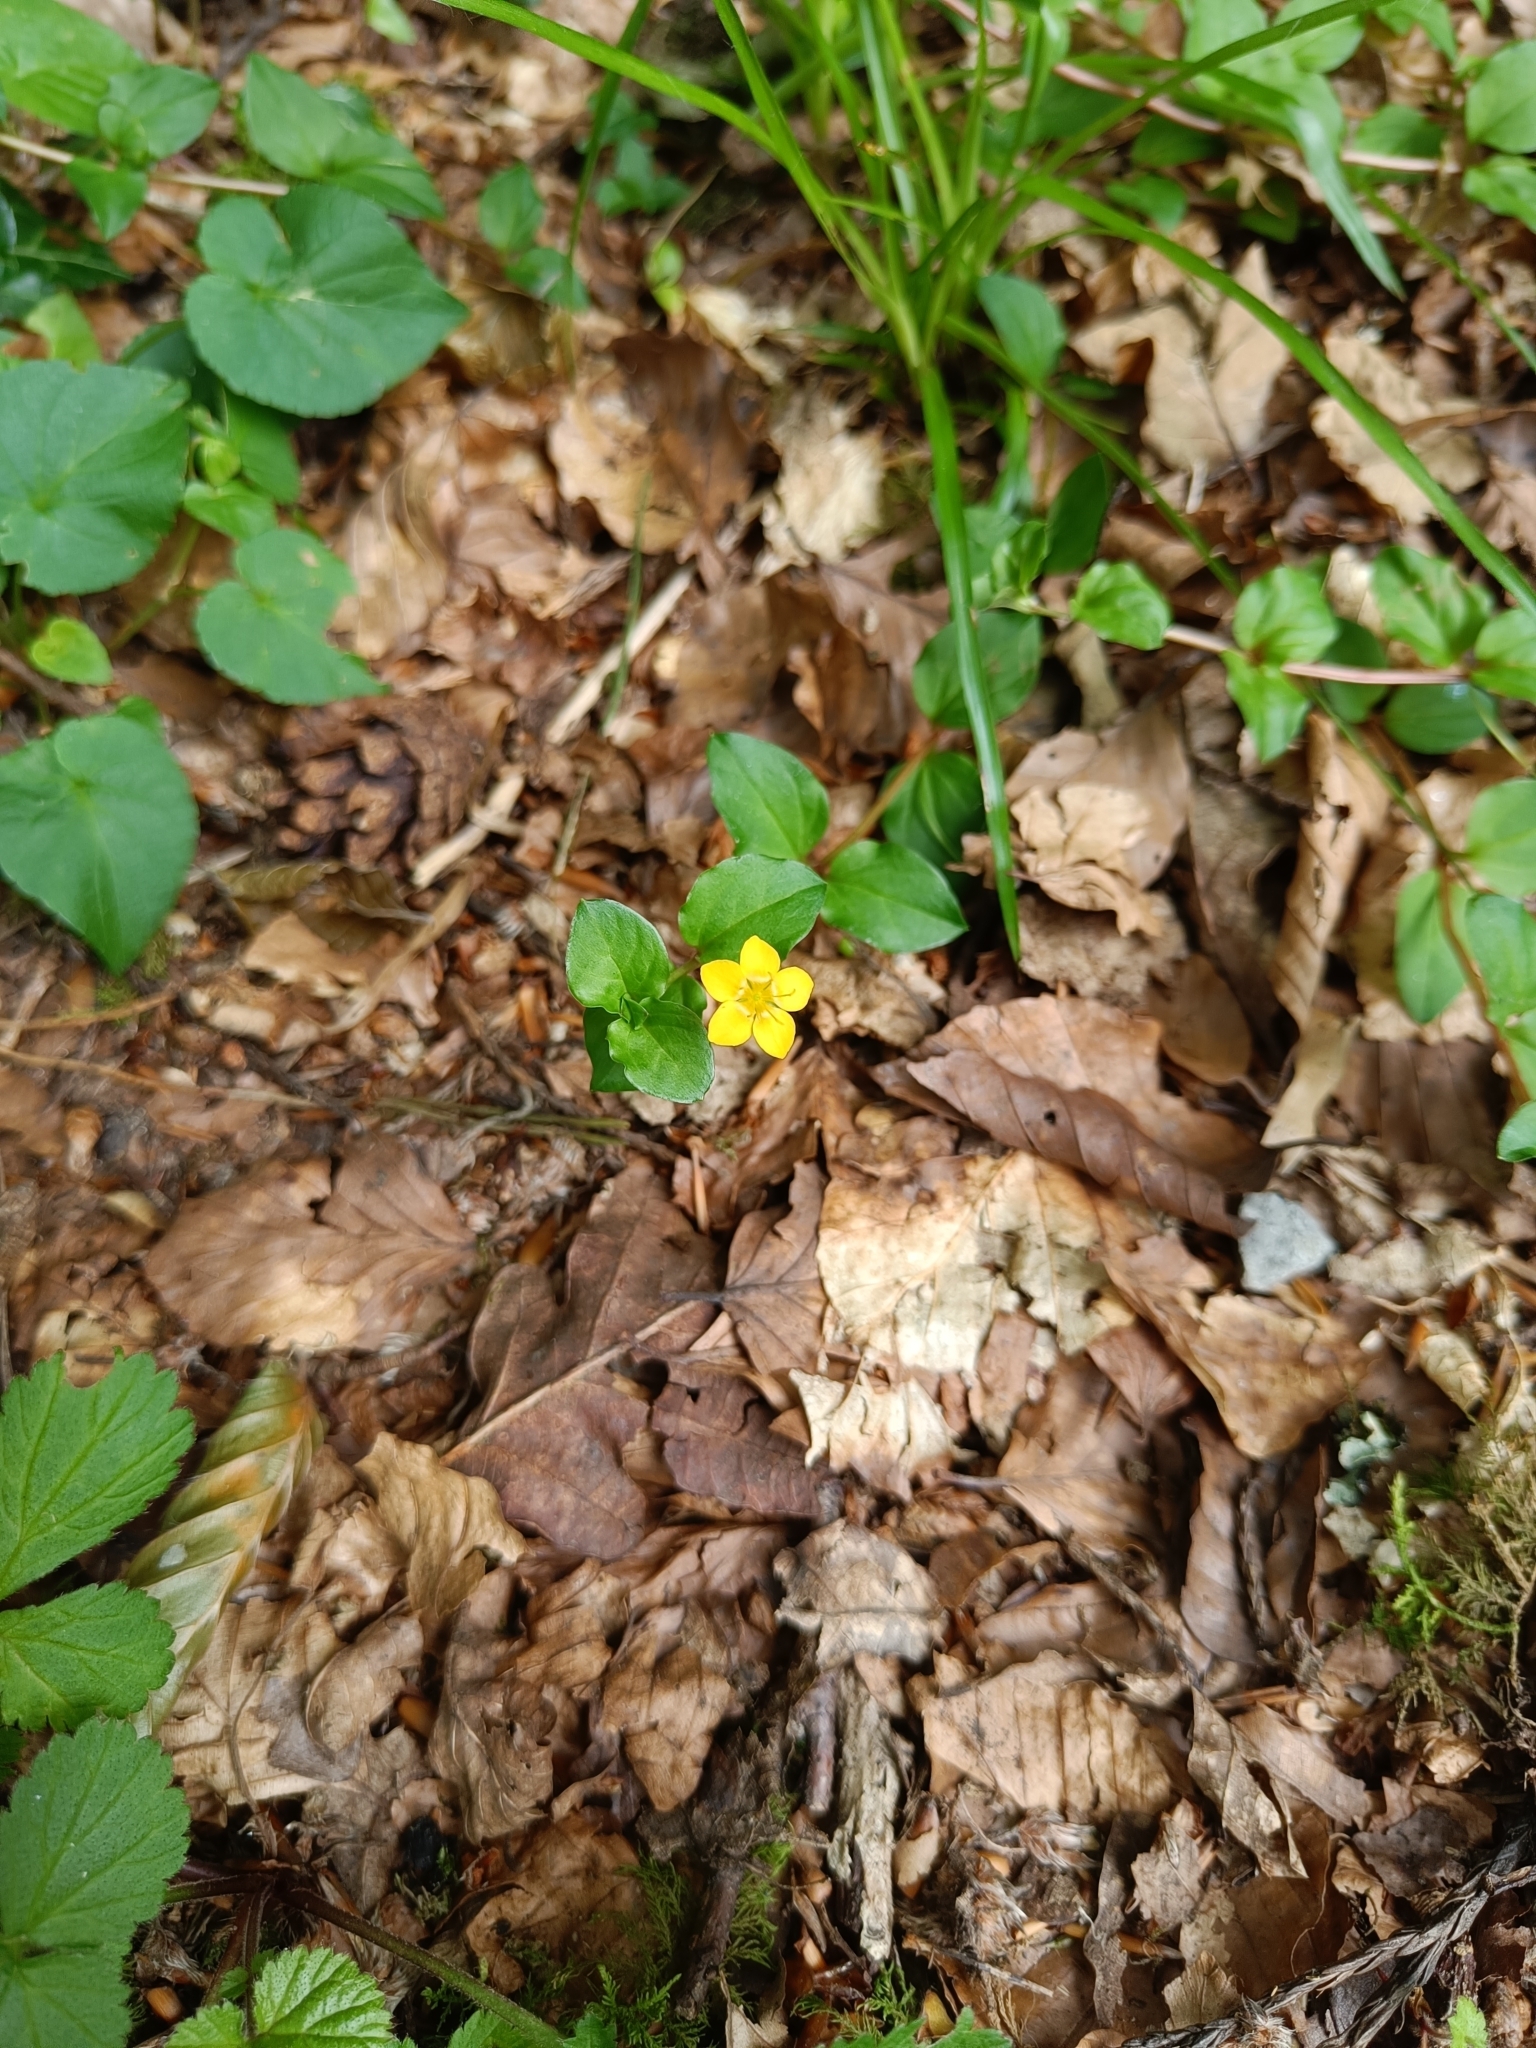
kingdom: Plantae
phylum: Tracheophyta
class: Magnoliopsida
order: Ericales
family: Primulaceae
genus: Lysimachia
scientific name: Lysimachia nemorum
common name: Yellow pimpernel
